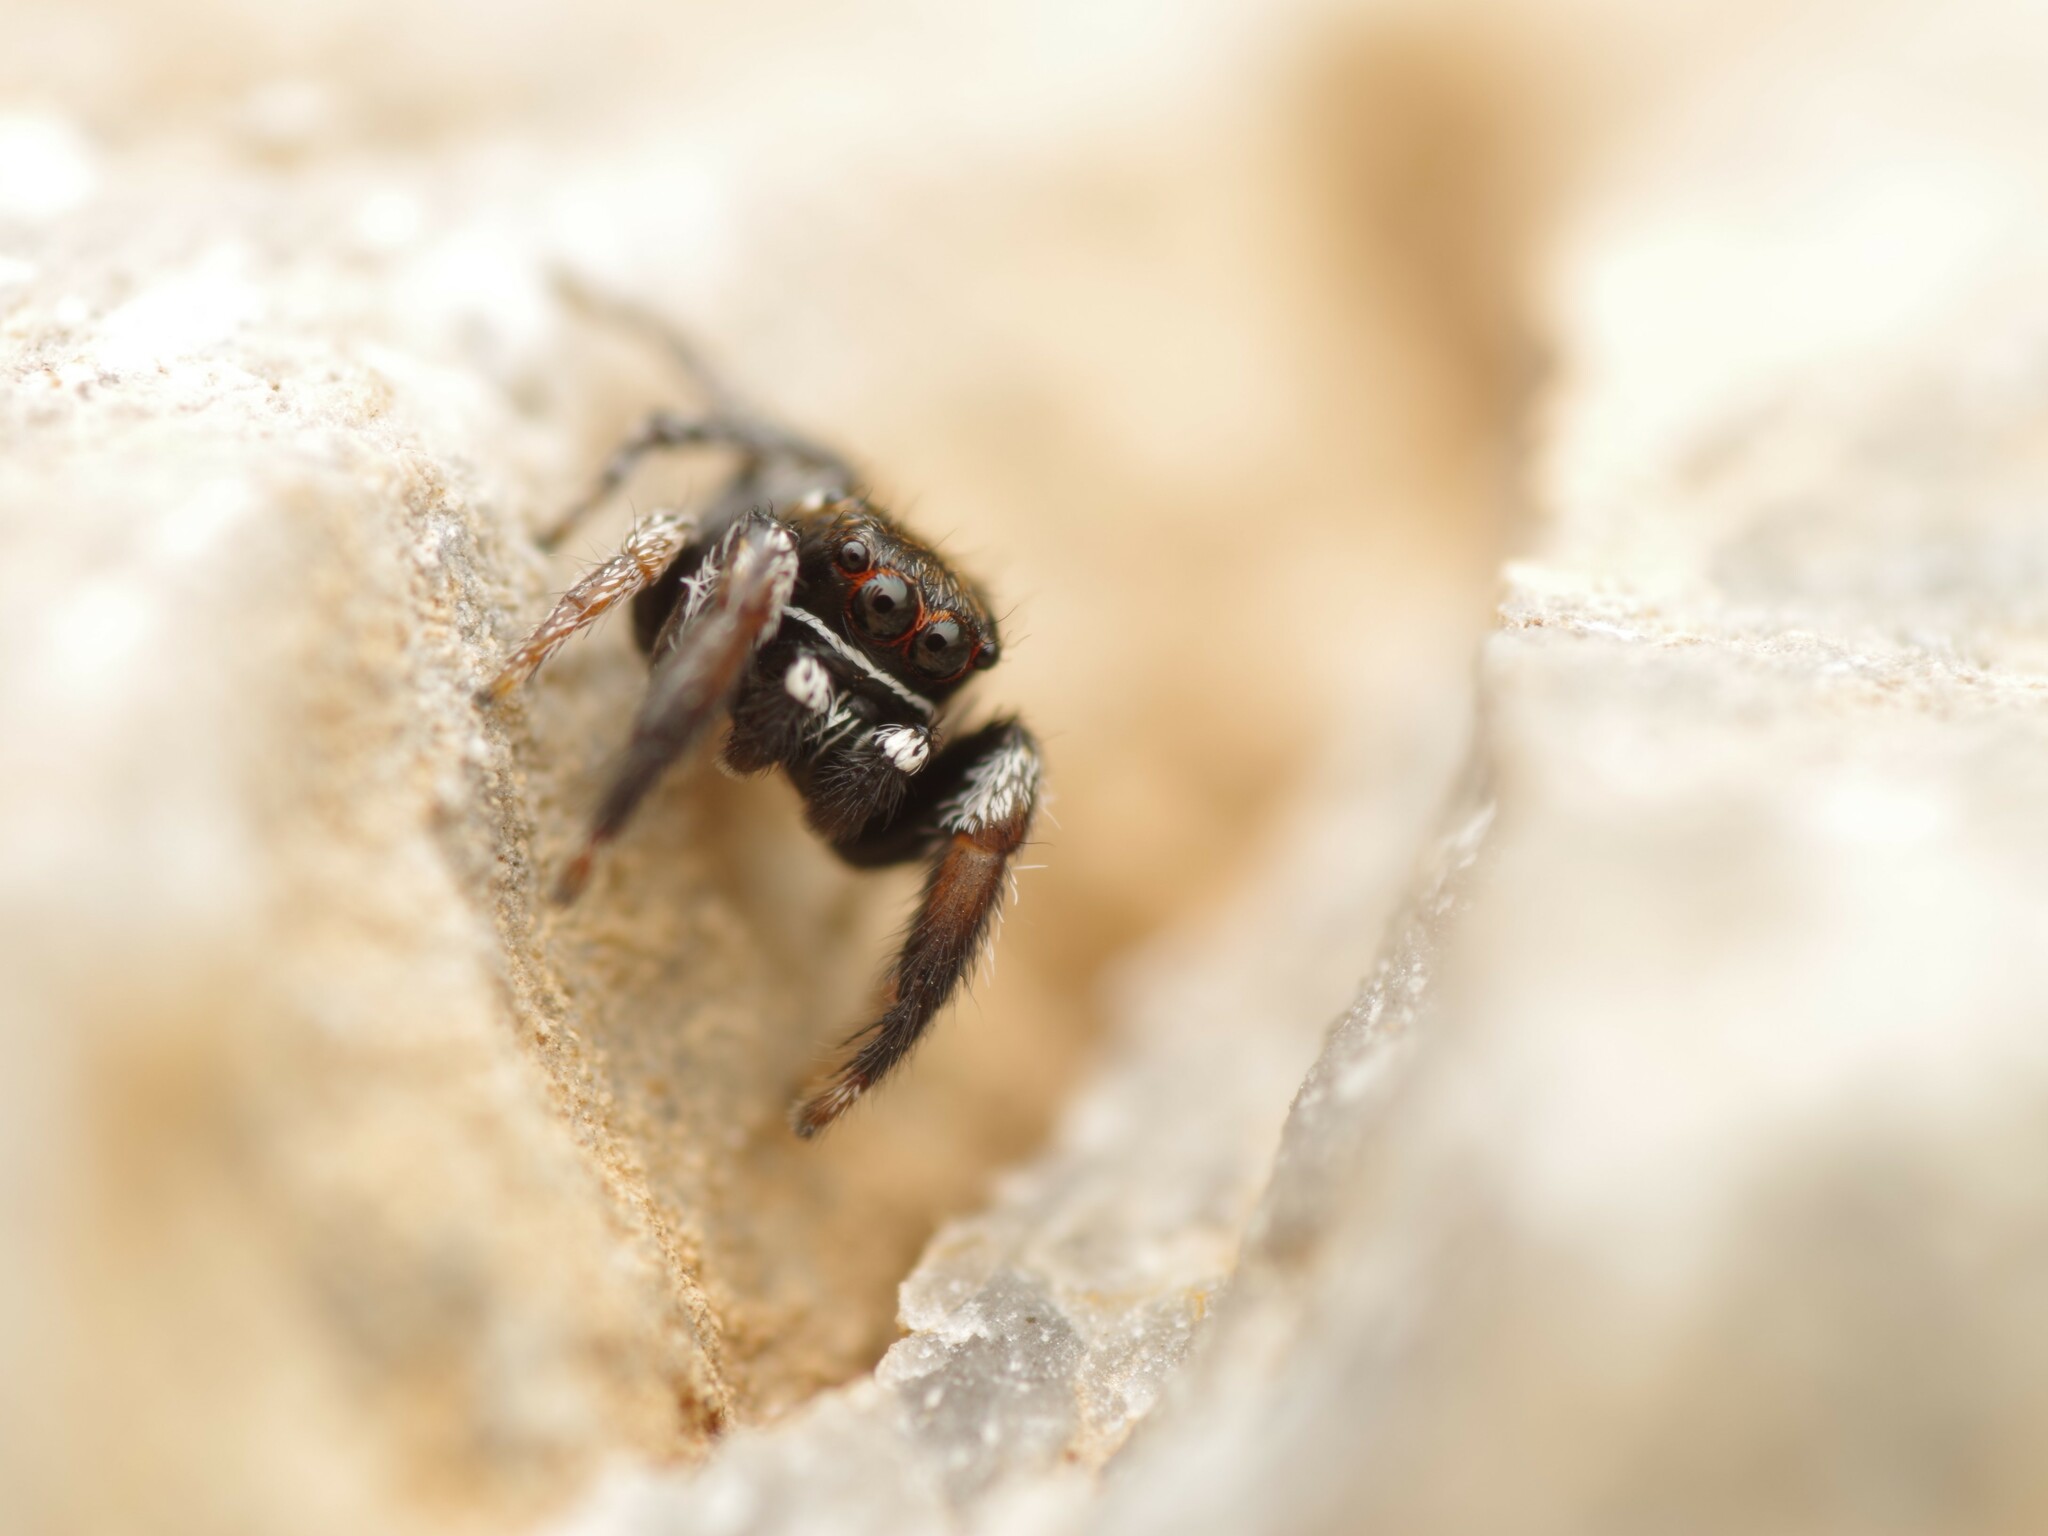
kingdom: Animalia
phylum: Arthropoda
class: Arachnida
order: Araneae
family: Salticidae
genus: Pellenes
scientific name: Pellenes geniculatus
